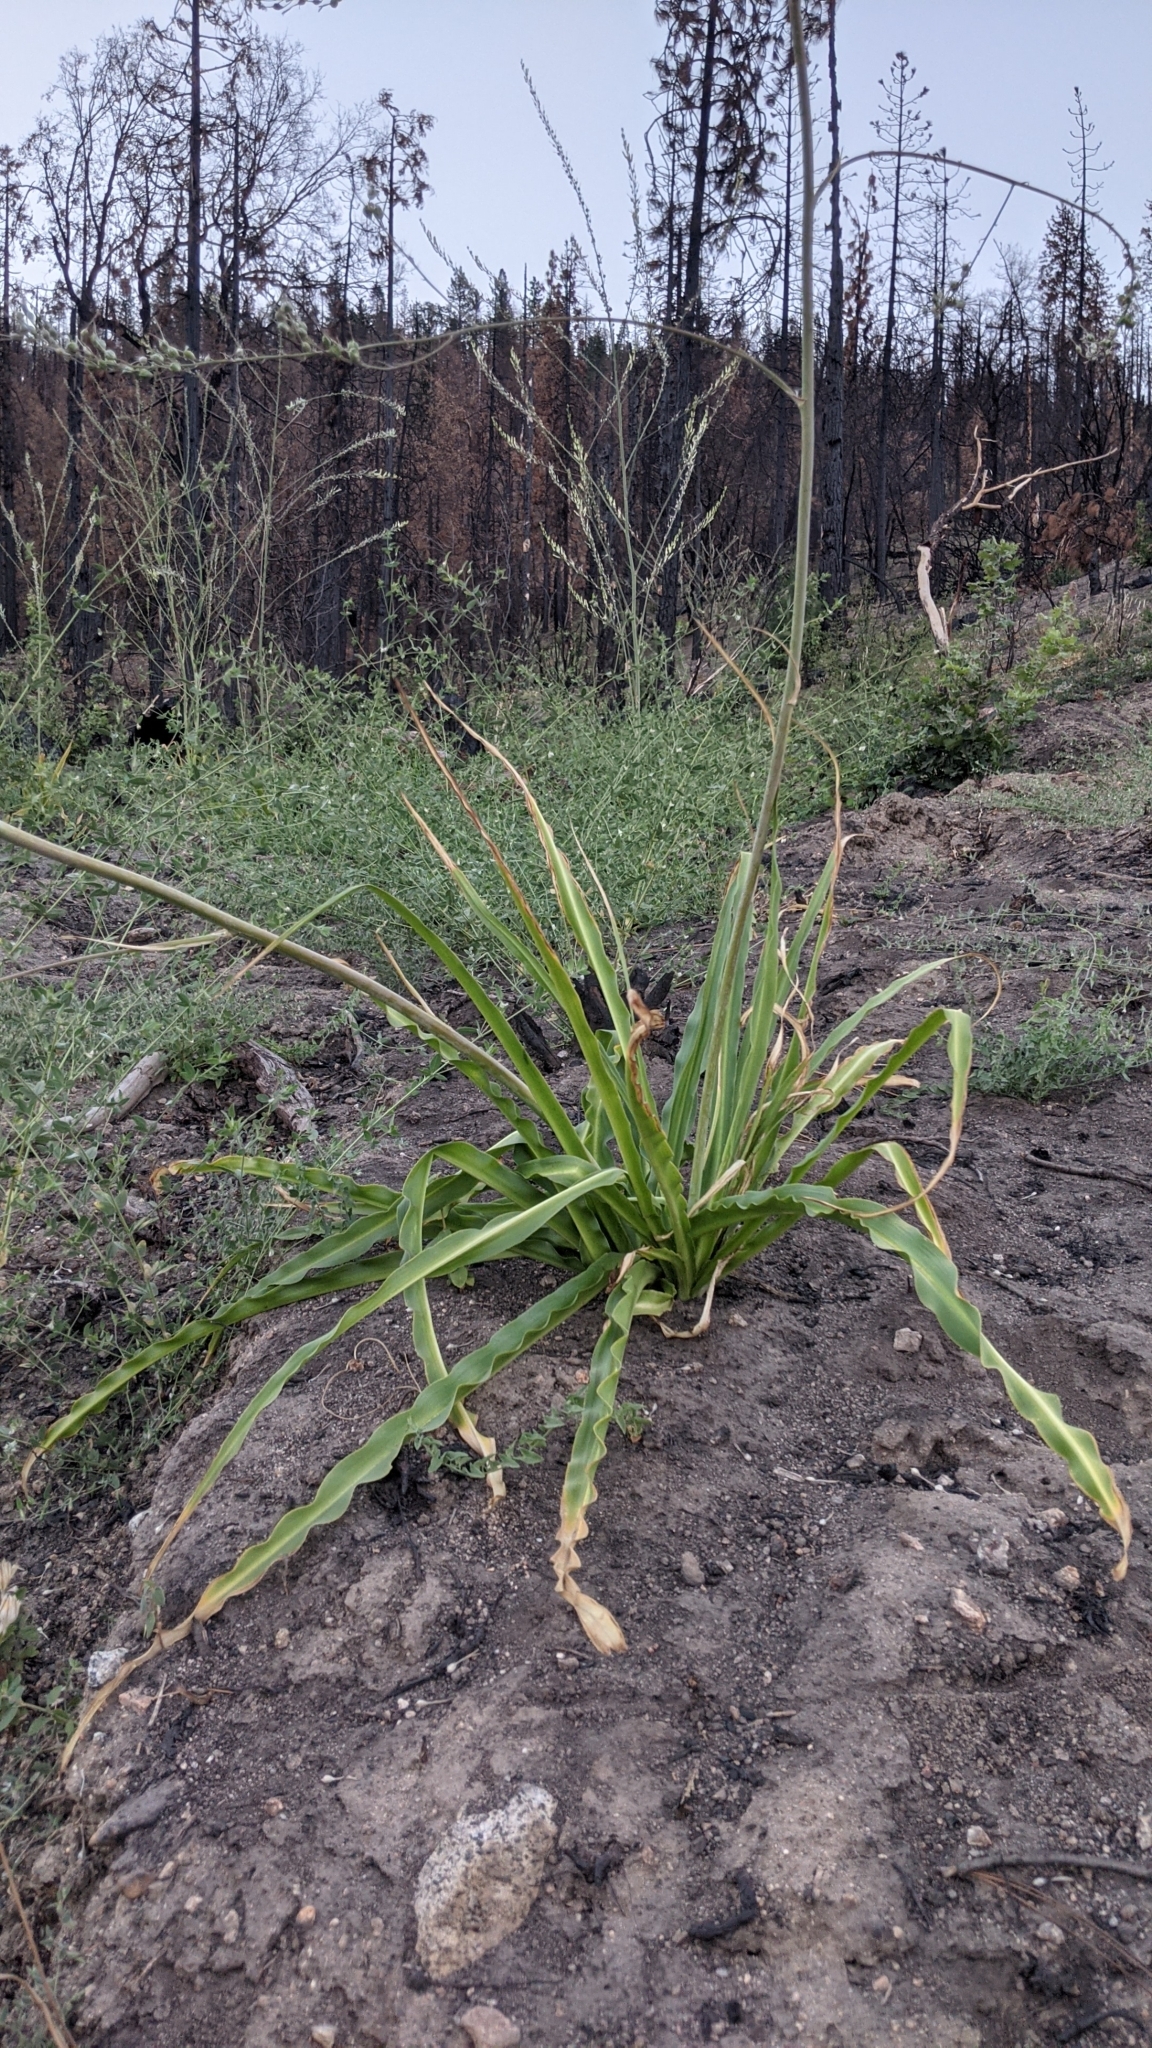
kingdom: Plantae
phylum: Tracheophyta
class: Liliopsida
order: Asparagales
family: Asparagaceae
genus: Chlorogalum
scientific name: Chlorogalum pomeridianum
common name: Amole
